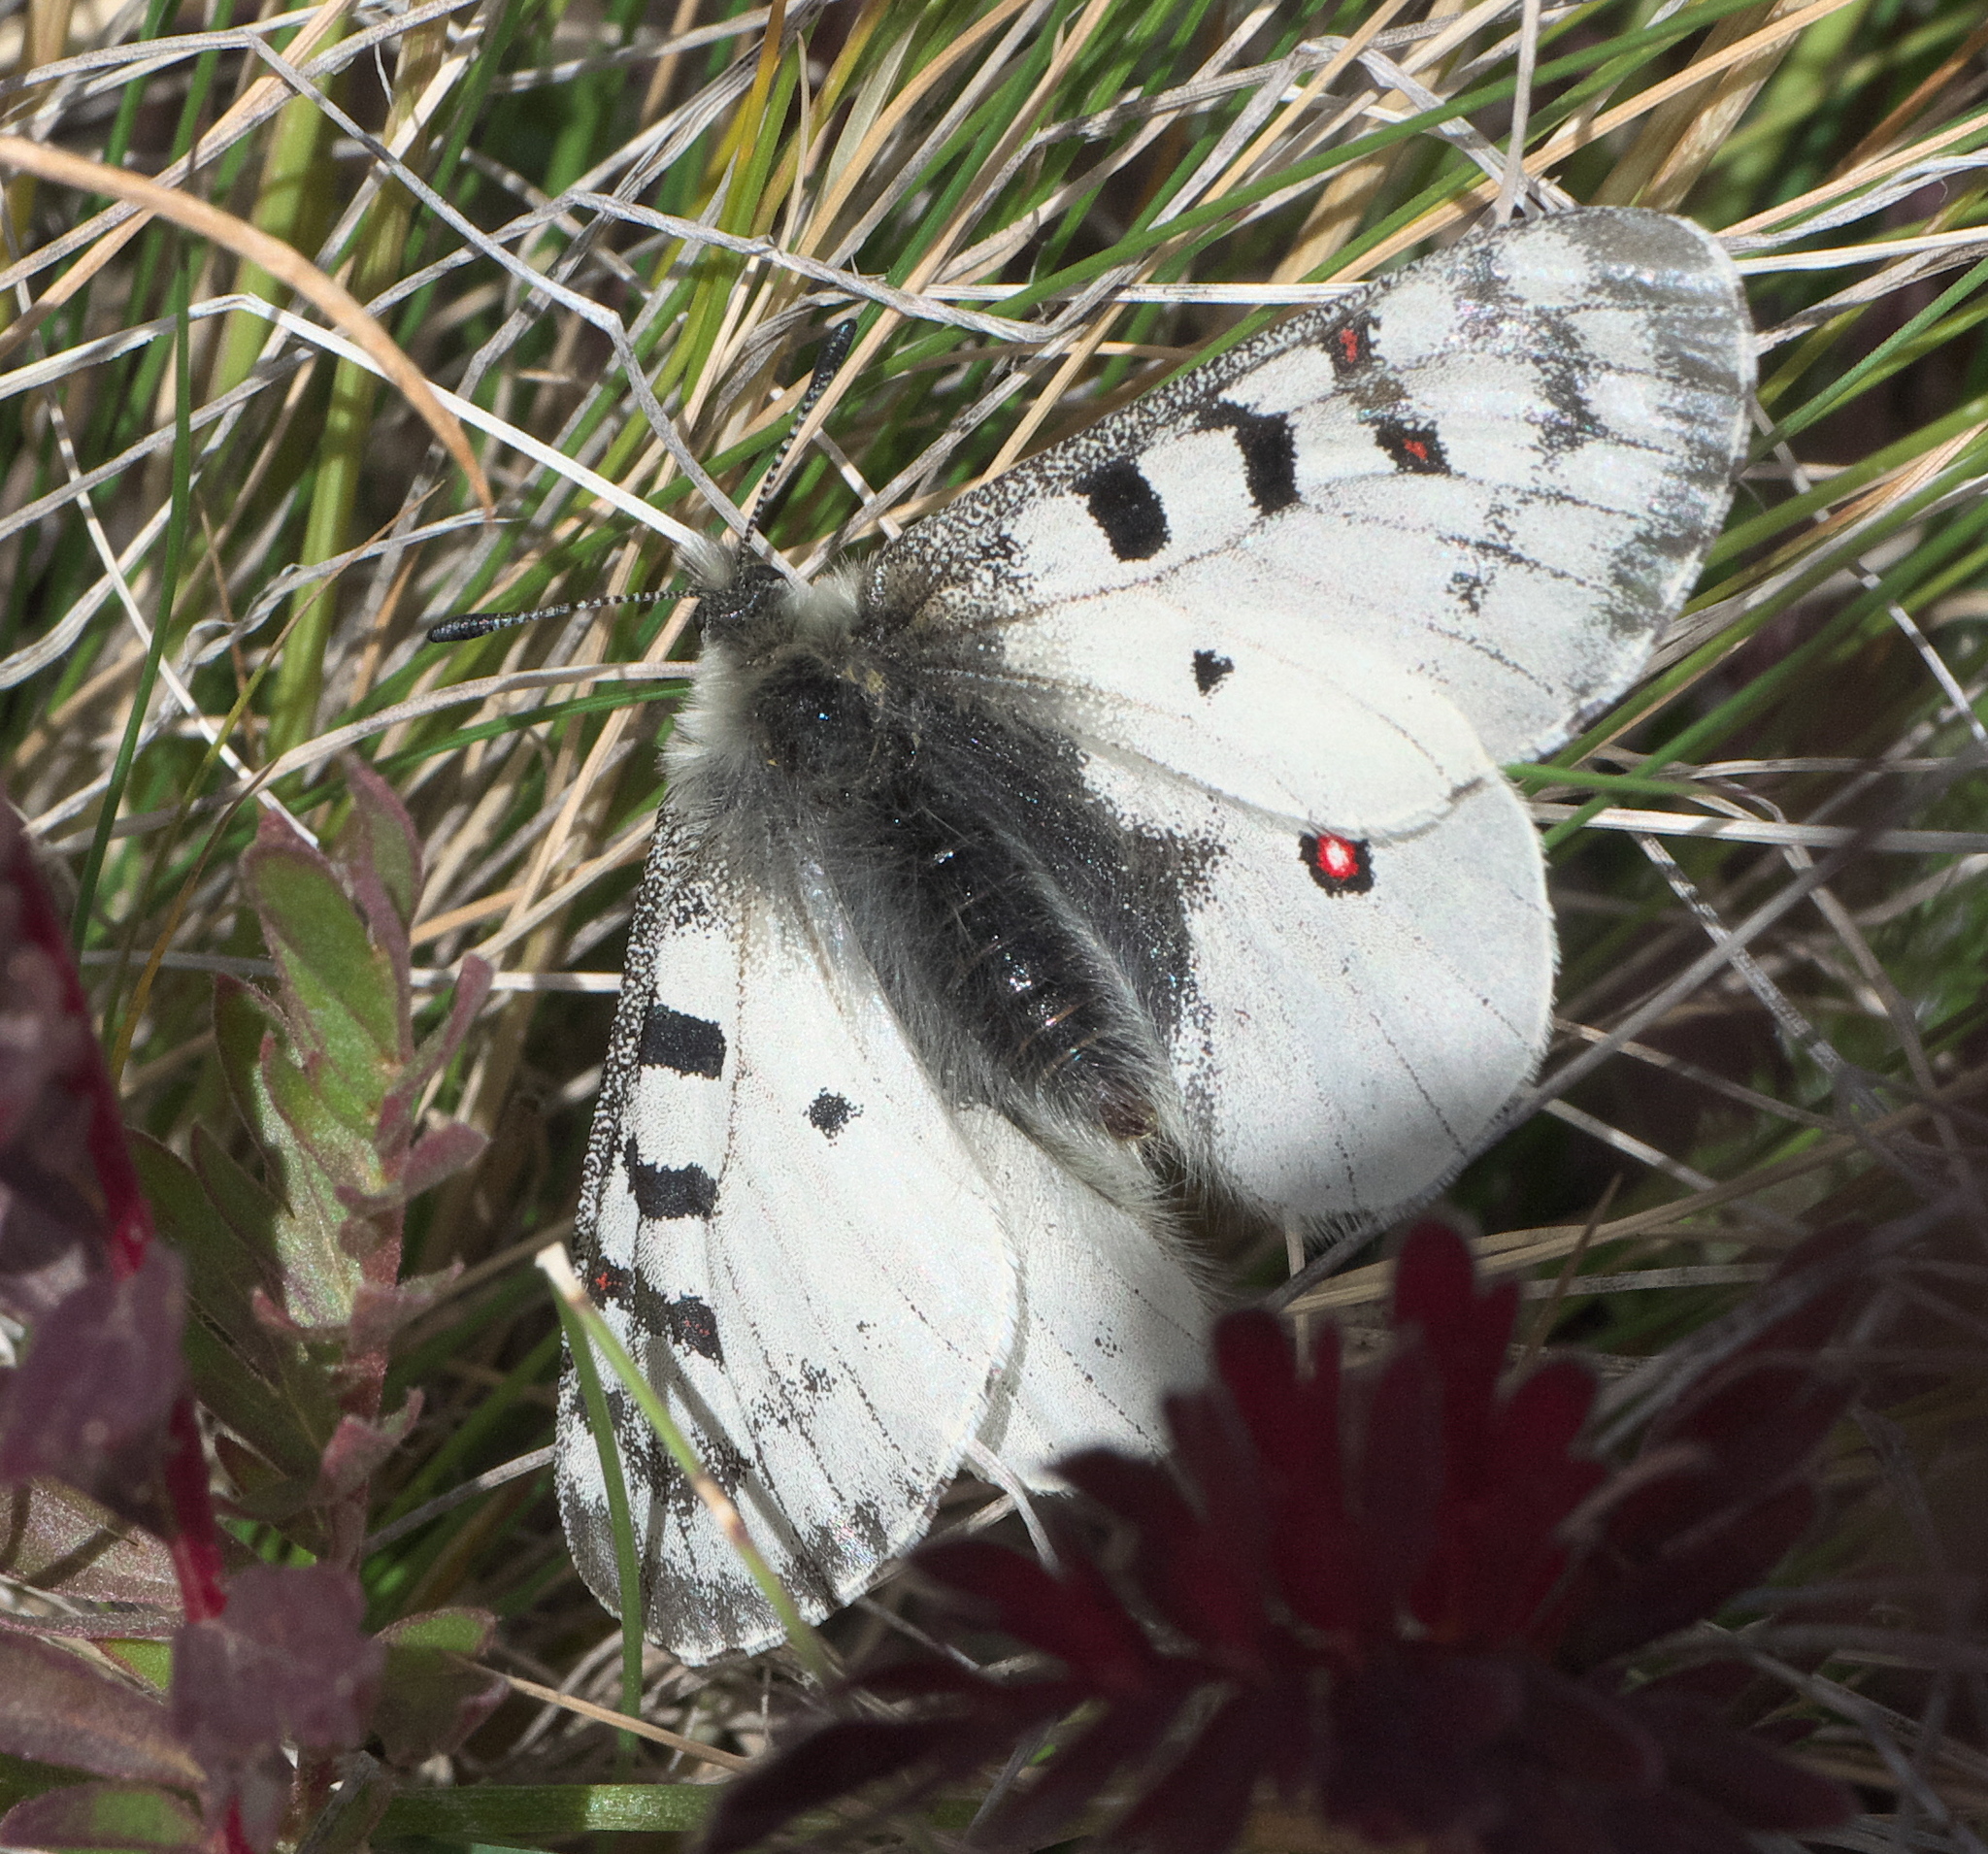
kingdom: Animalia
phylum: Arthropoda
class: Insecta
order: Lepidoptera
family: Papilionidae
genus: Parnassius
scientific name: Parnassius smintheus
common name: Mountain parnassian
